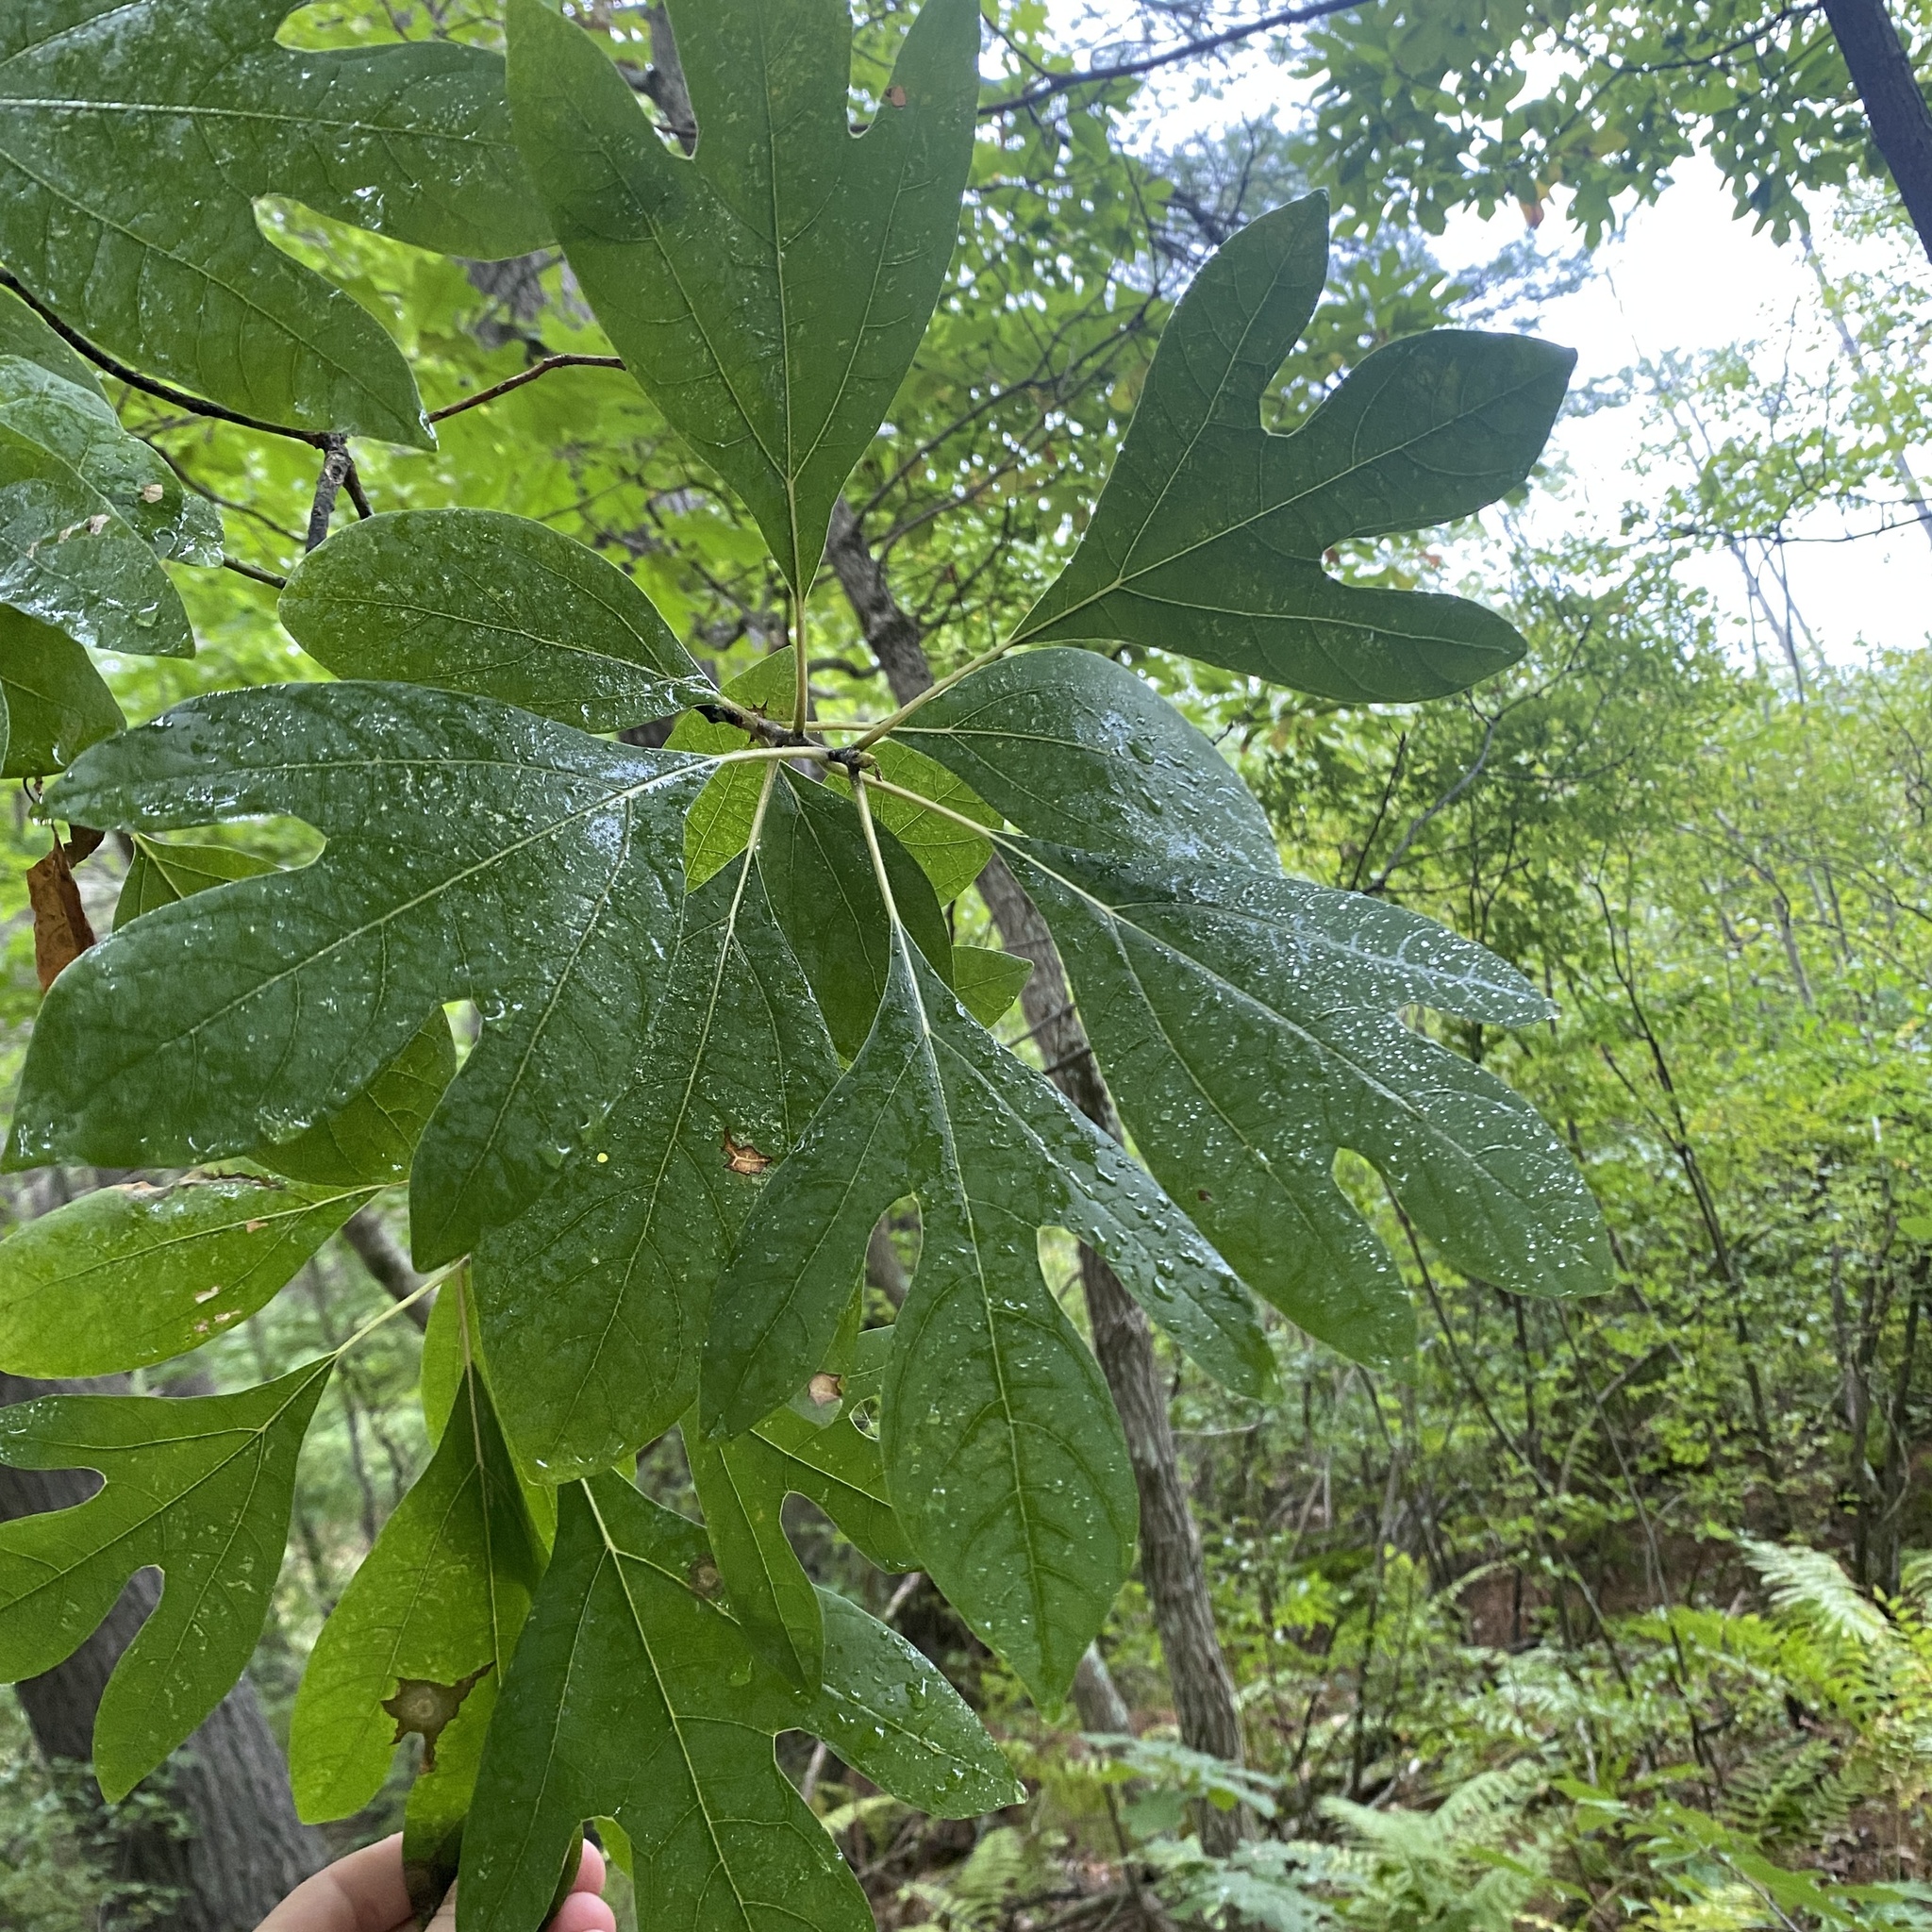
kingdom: Plantae
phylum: Tracheophyta
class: Magnoliopsida
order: Laurales
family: Lauraceae
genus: Sassafras
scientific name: Sassafras albidum
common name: Sassafras
